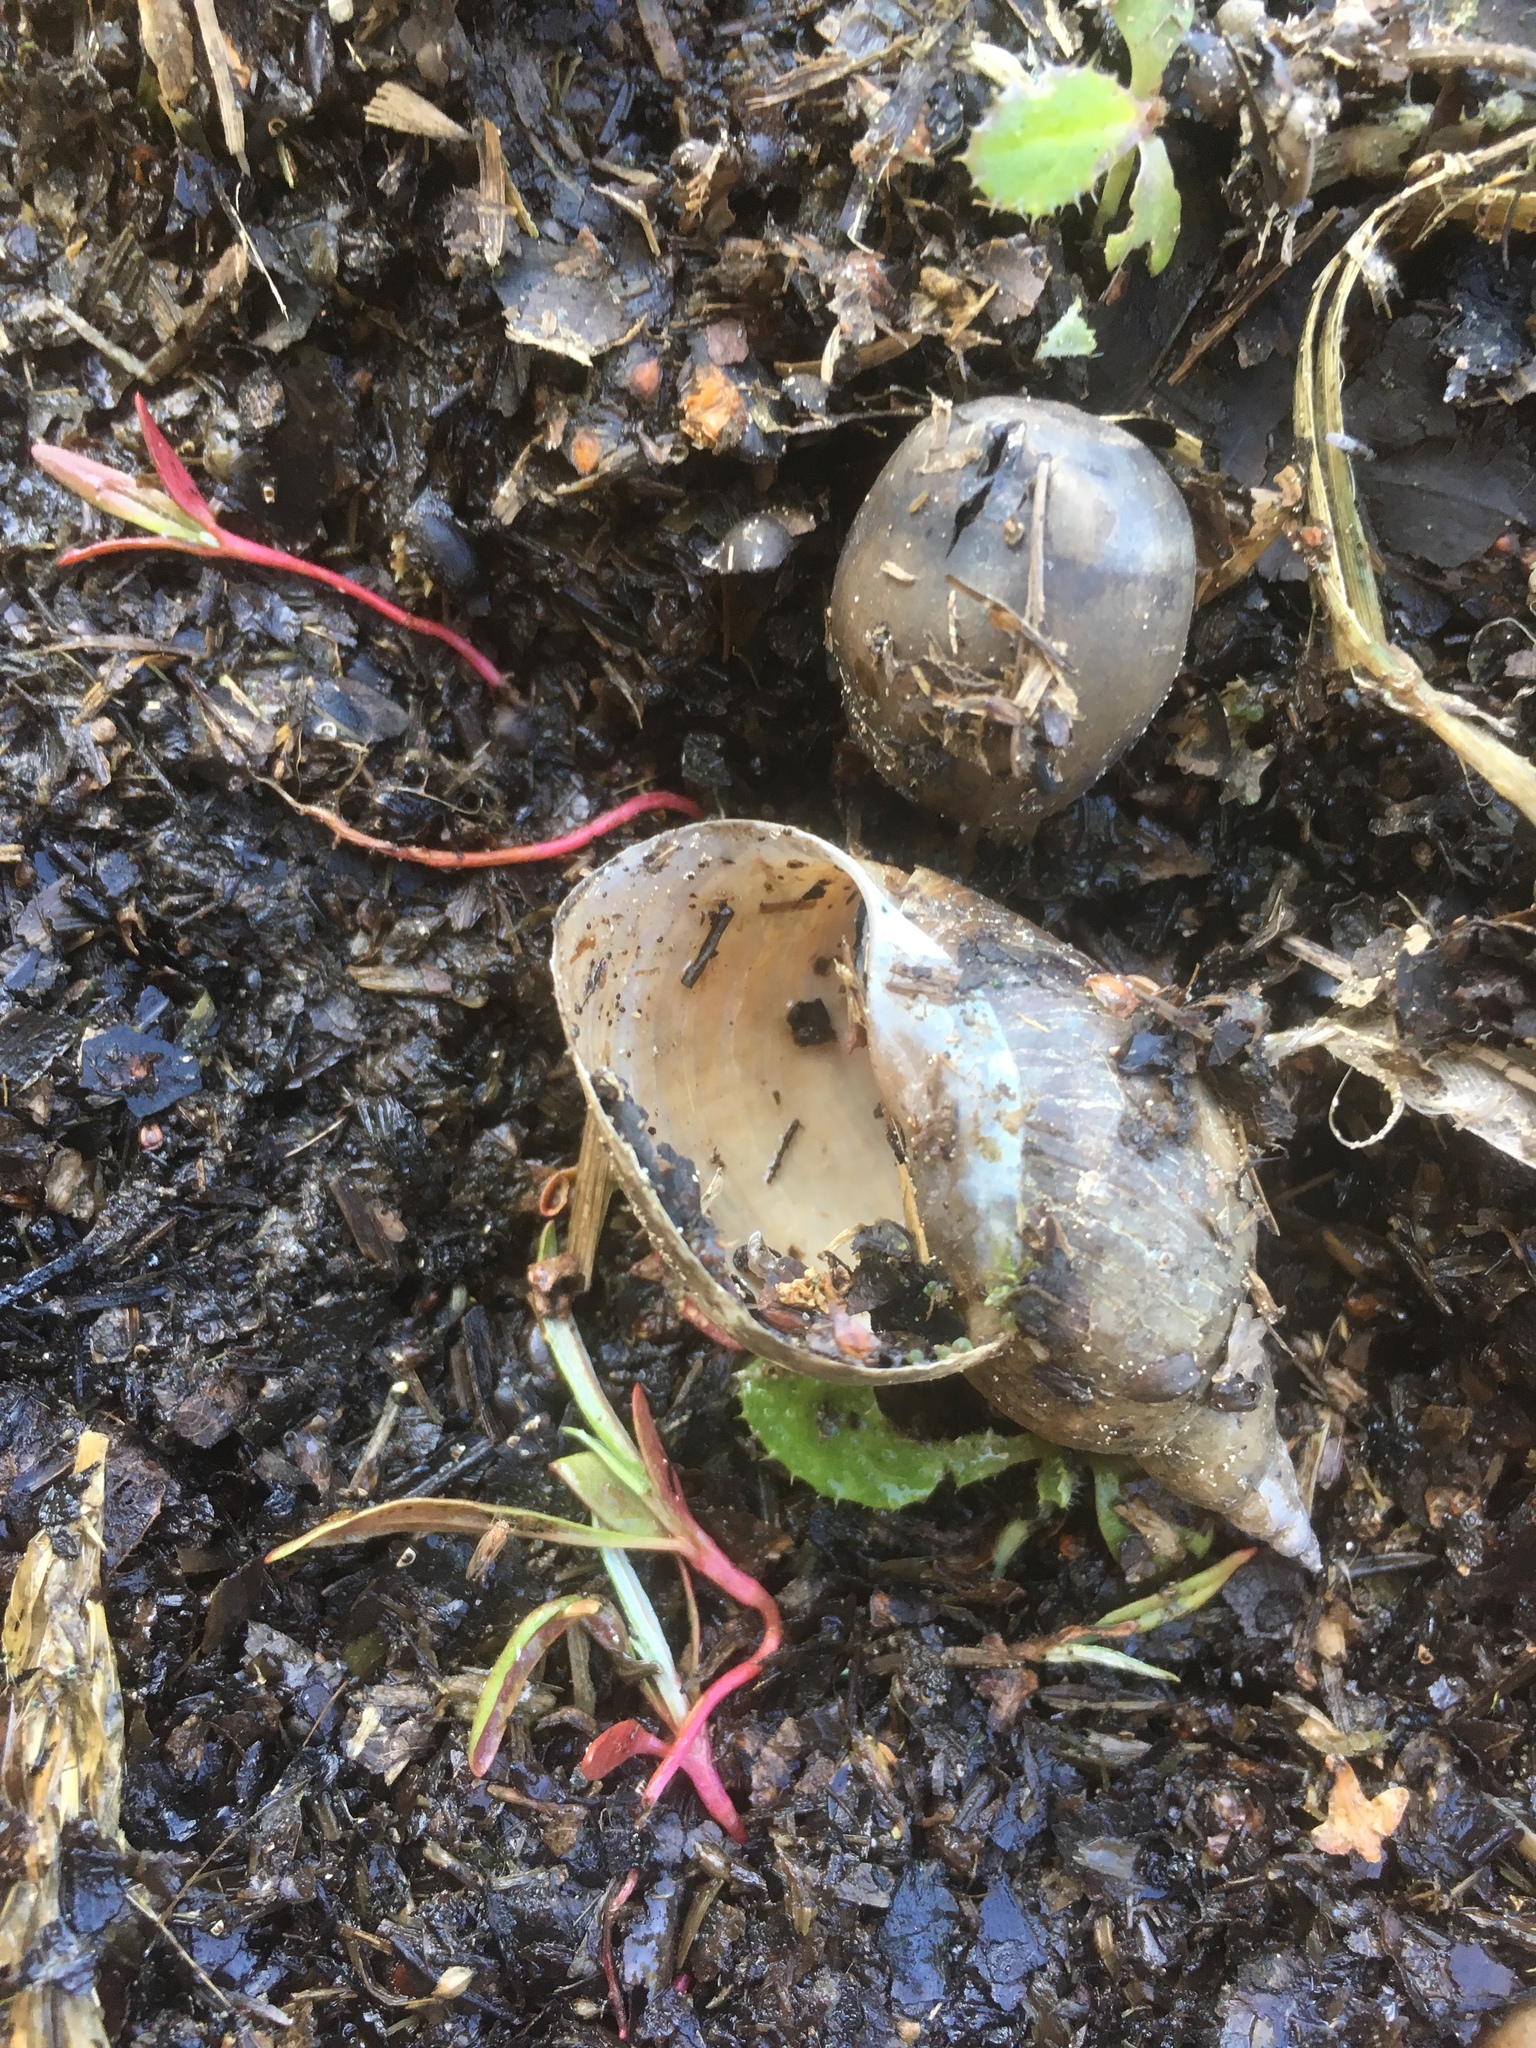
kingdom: Animalia
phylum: Mollusca
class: Gastropoda
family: Lymnaeidae
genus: Lymnaea
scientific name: Lymnaea stagnalis
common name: Great pond snail
